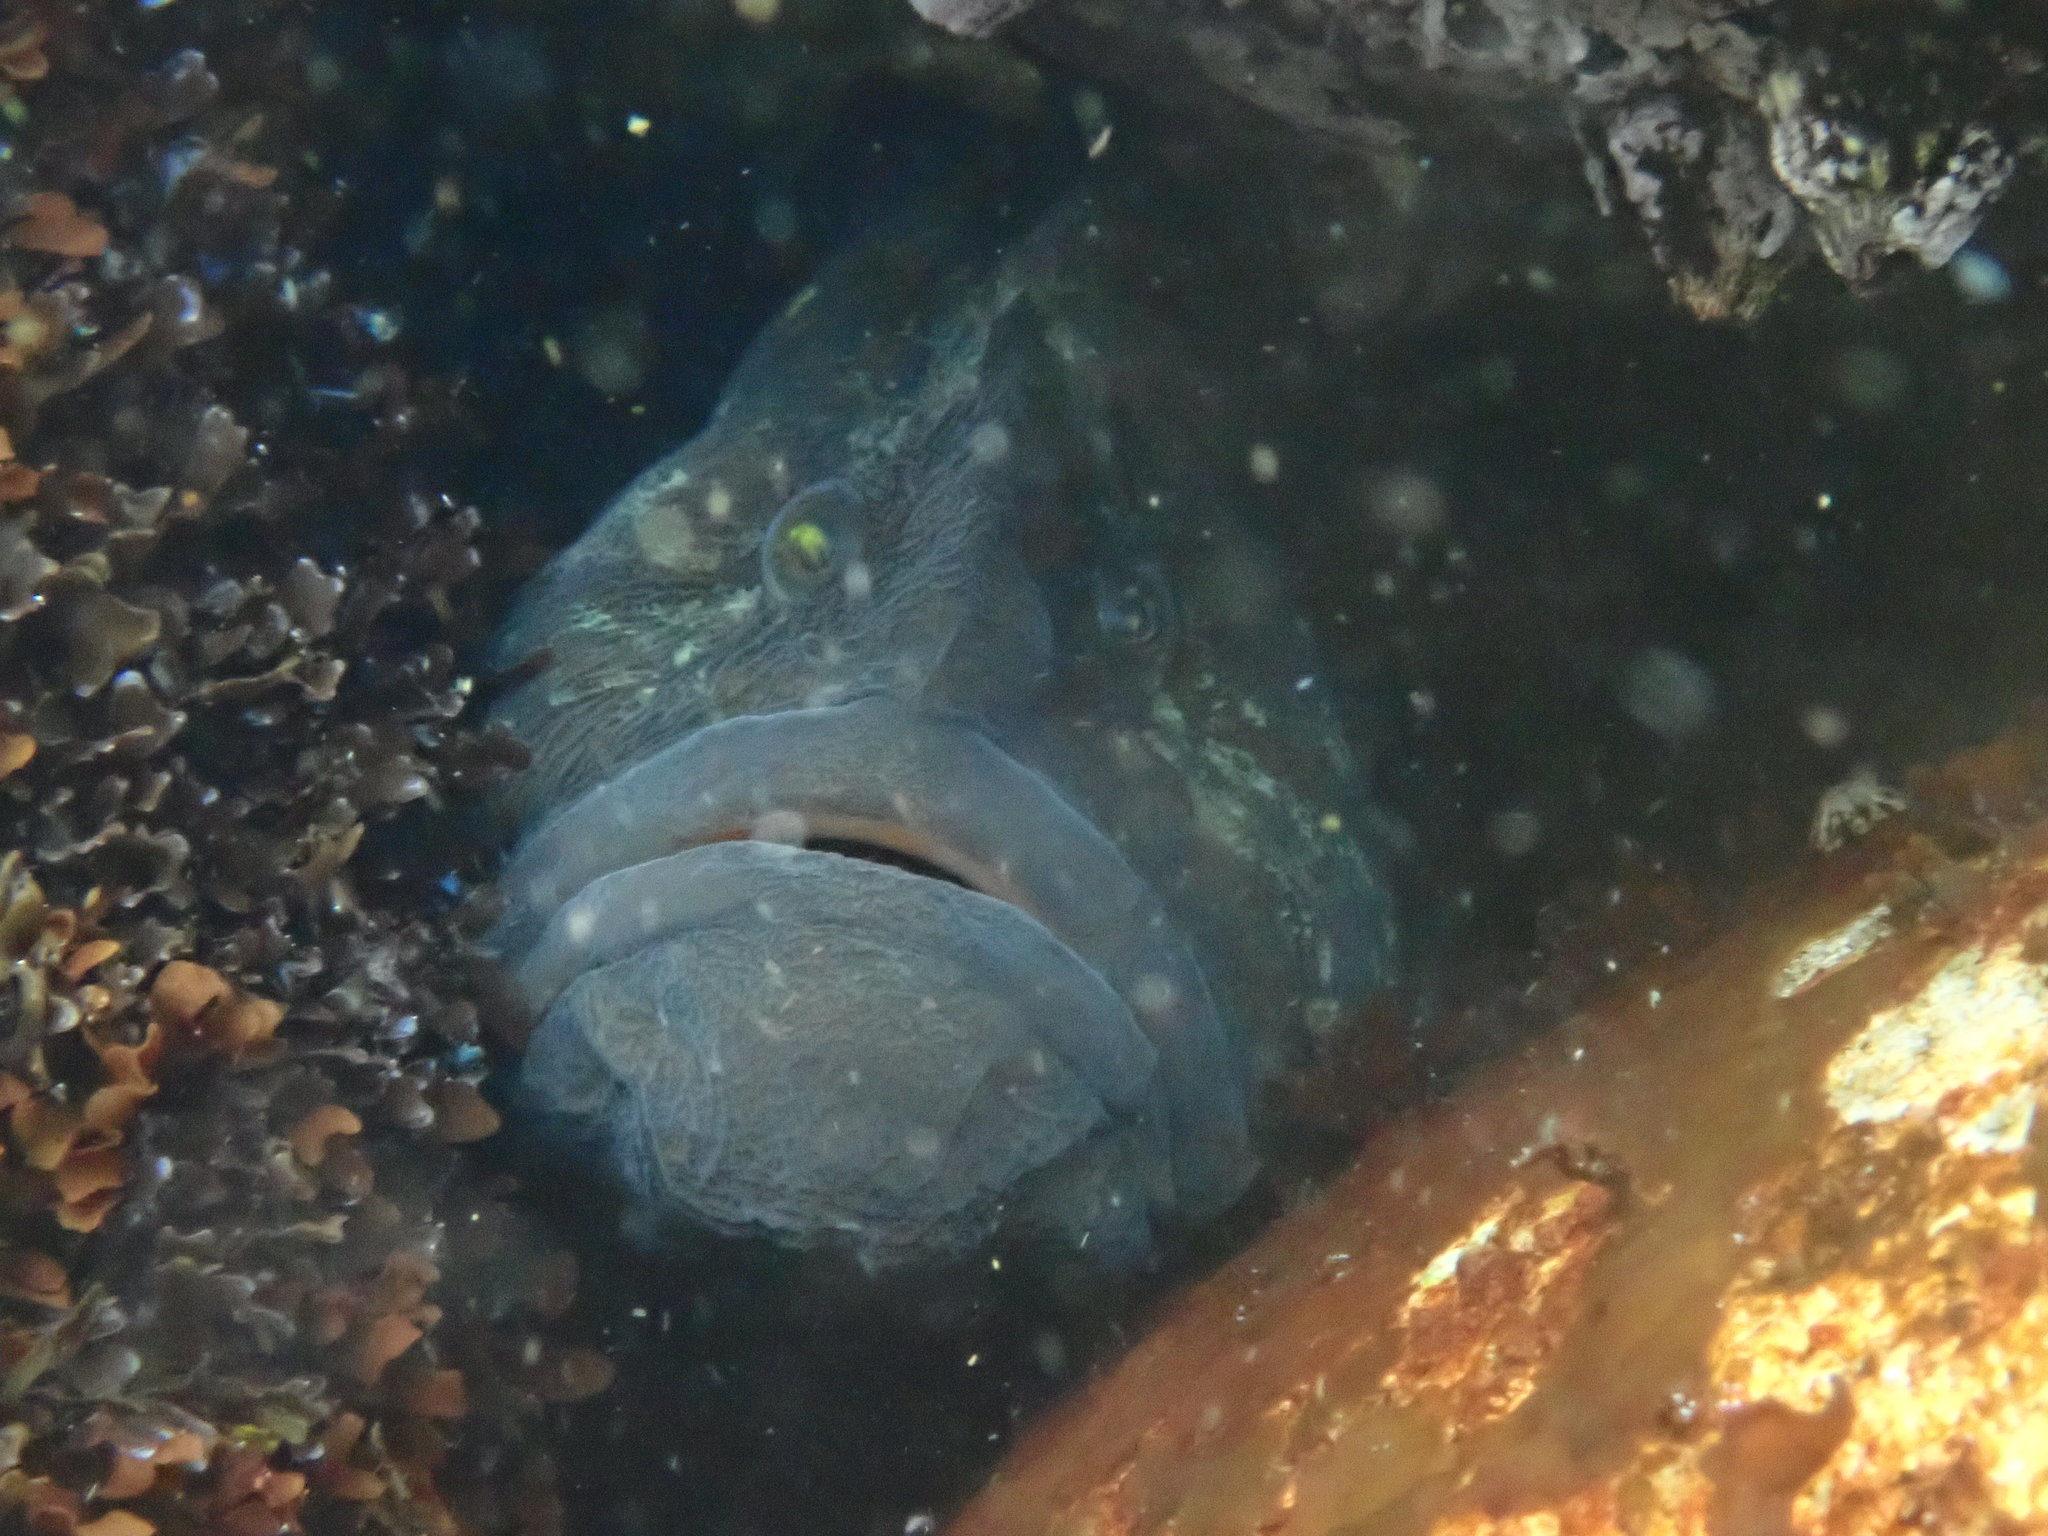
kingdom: Animalia
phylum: Chordata
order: Perciformes
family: Stichaeidae
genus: Cebidichthys
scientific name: Cebidichthys violaceus
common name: Monkeyface prickleback
